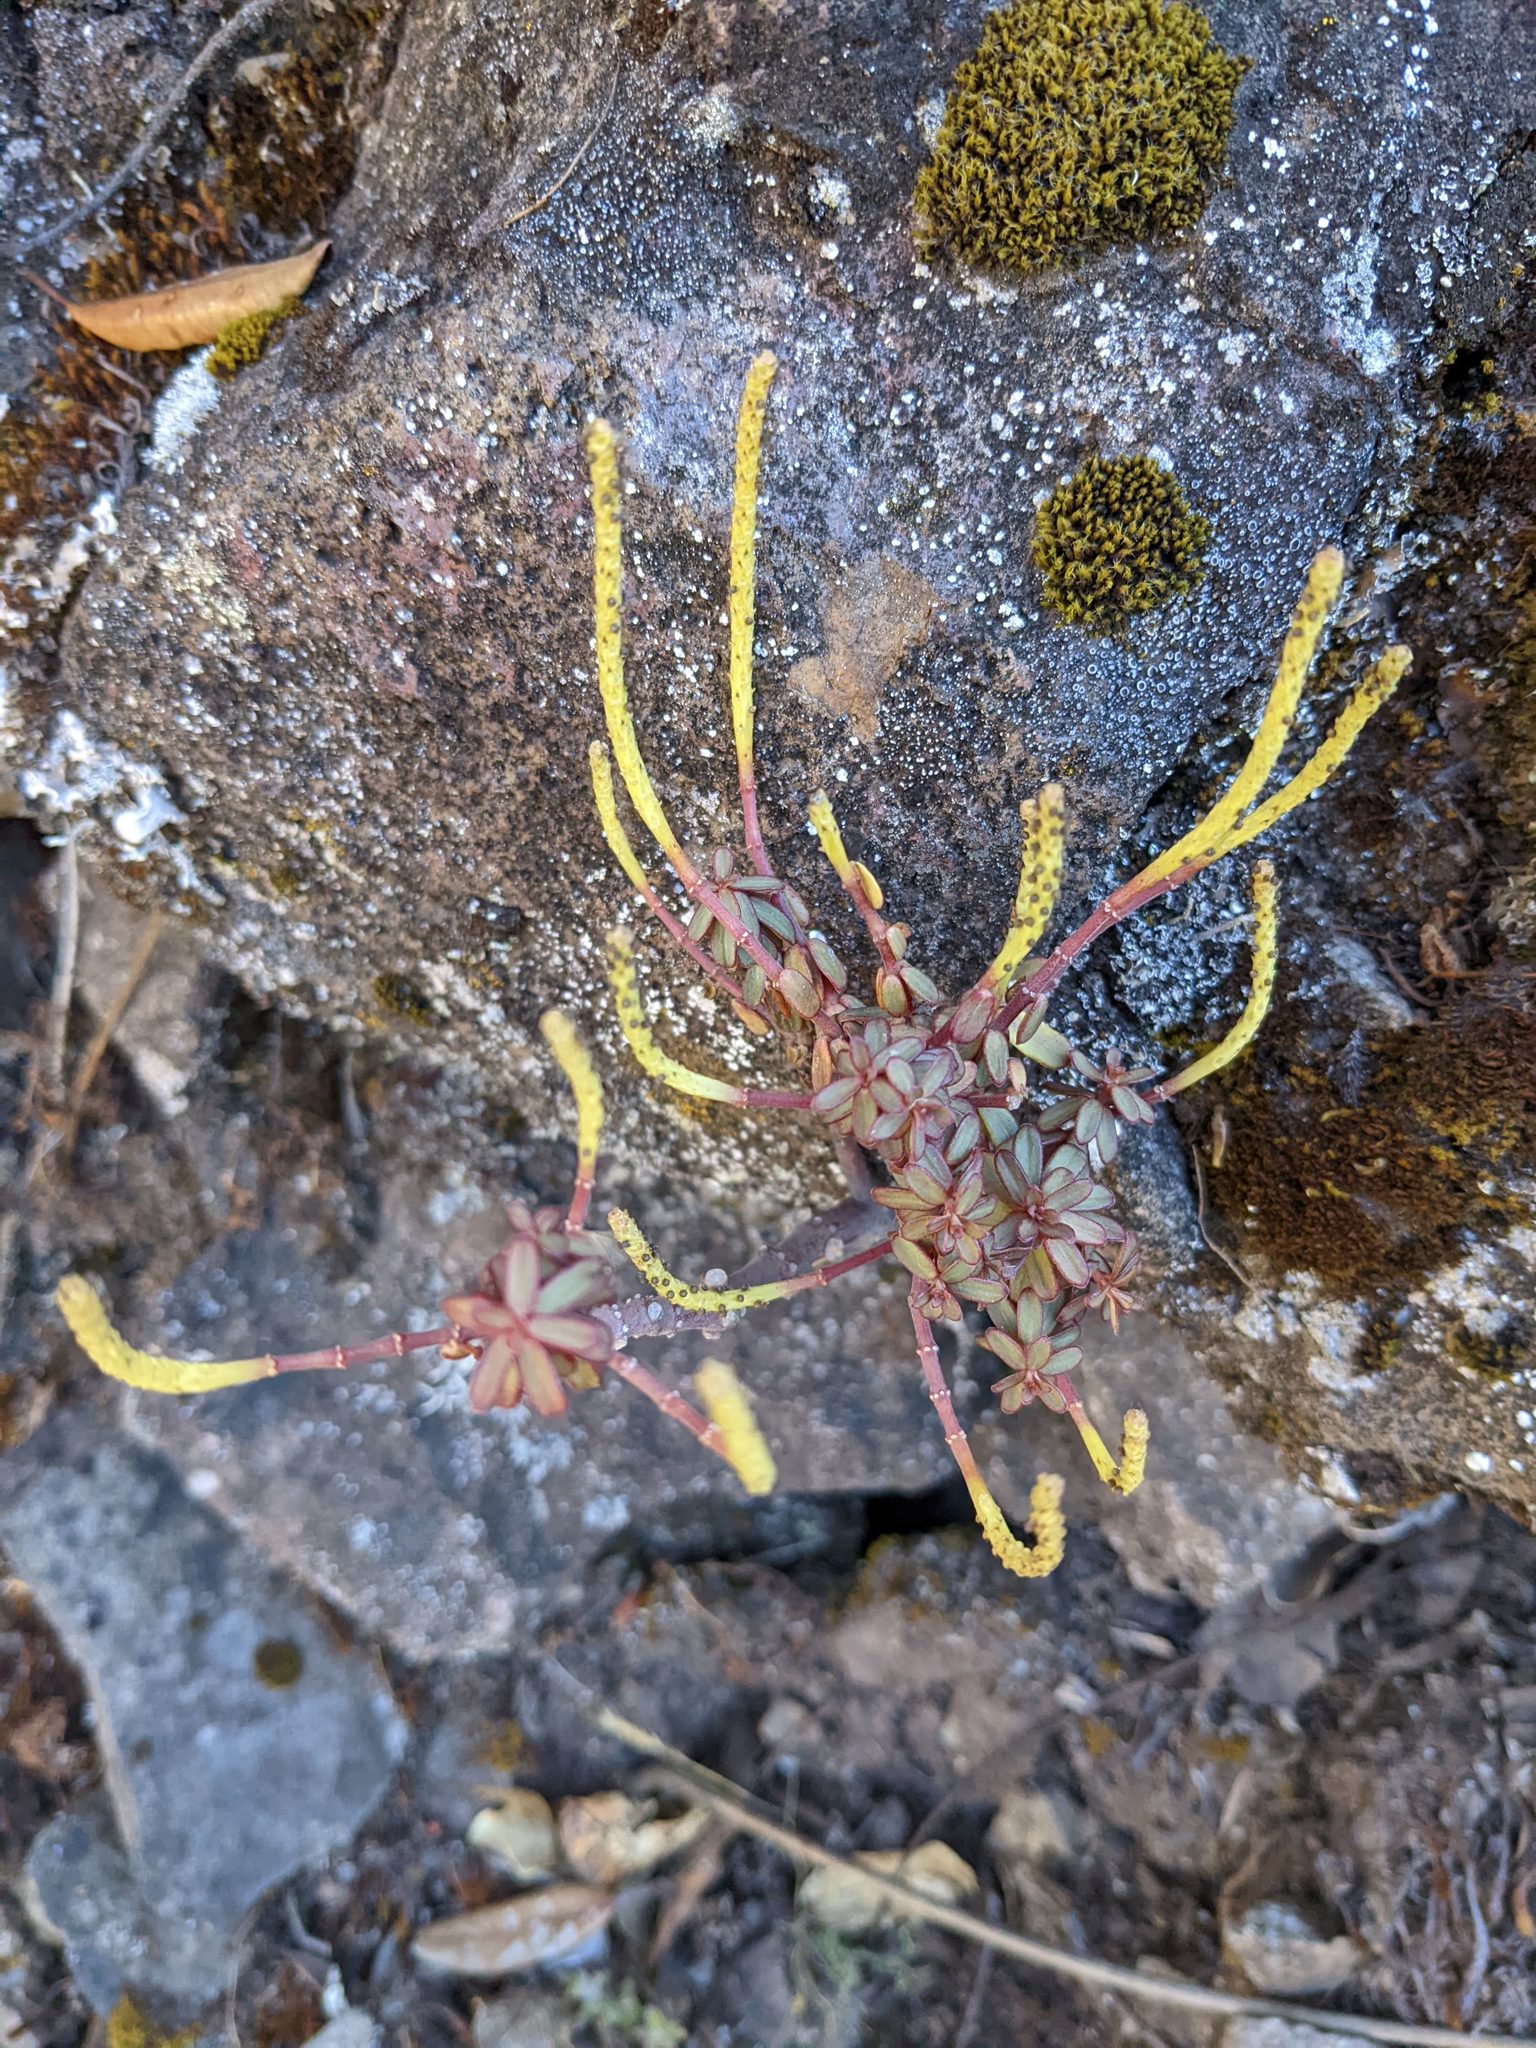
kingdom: Plantae
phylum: Tracheophyta
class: Magnoliopsida
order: Piperales
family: Piperaceae
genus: Peperomia
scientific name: Peperomia leptophylla
